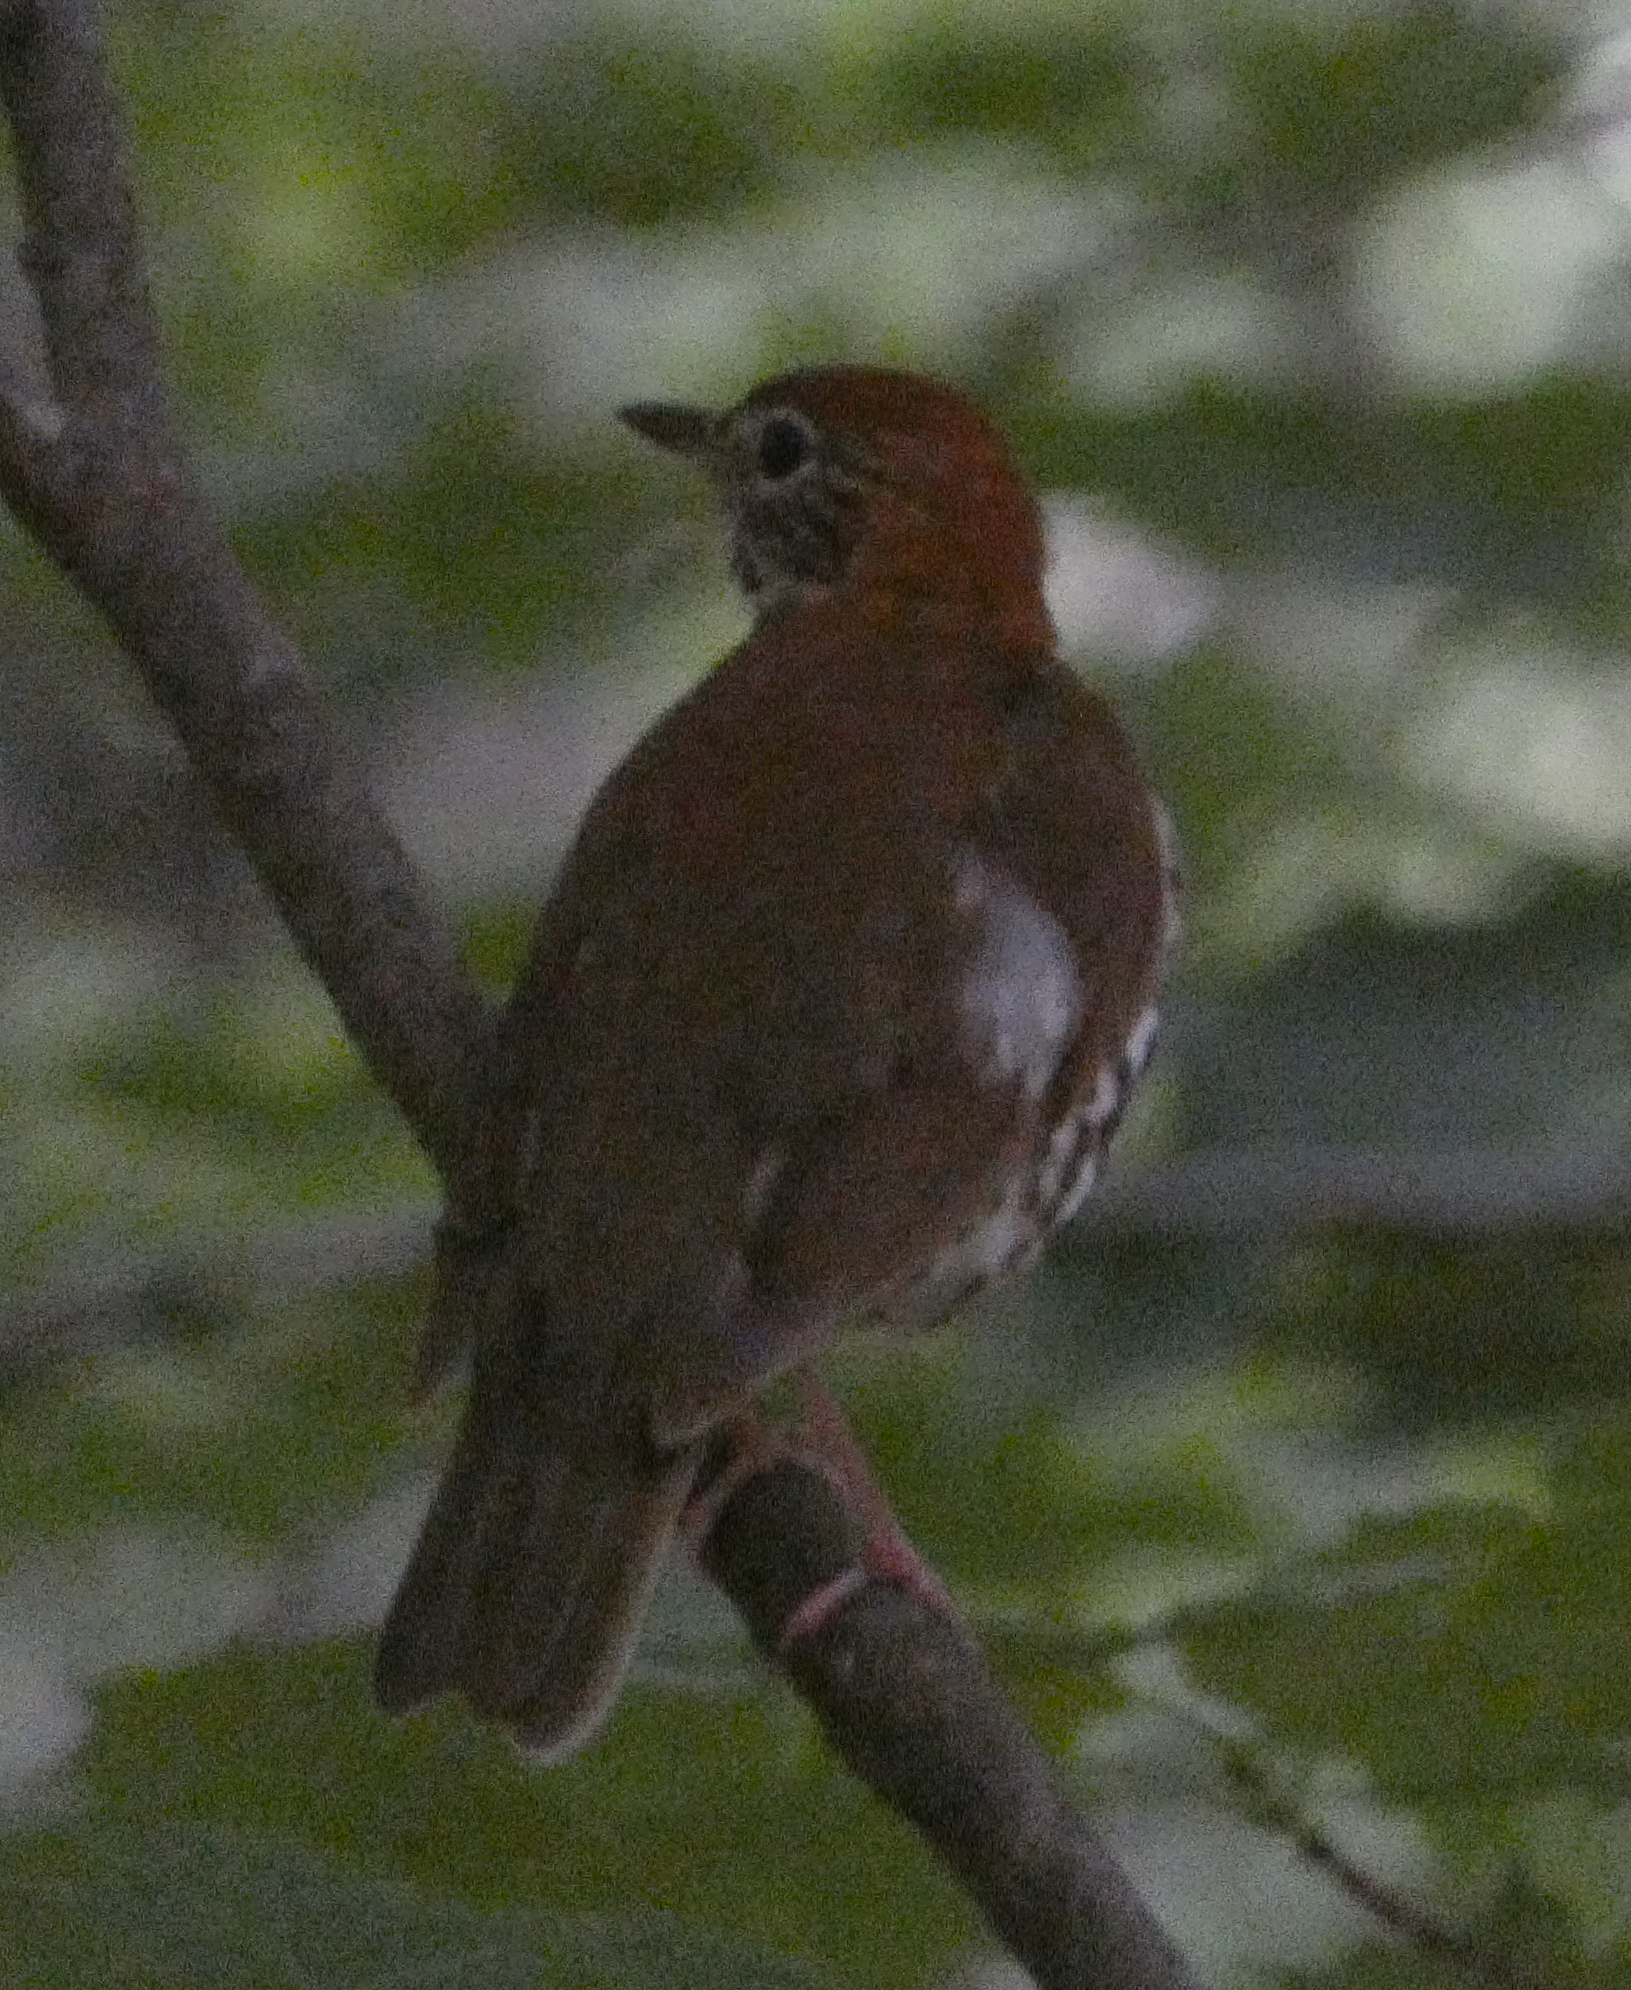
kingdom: Animalia
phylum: Chordata
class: Aves
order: Passeriformes
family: Turdidae
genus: Hylocichla
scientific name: Hylocichla mustelina
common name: Wood thrush
